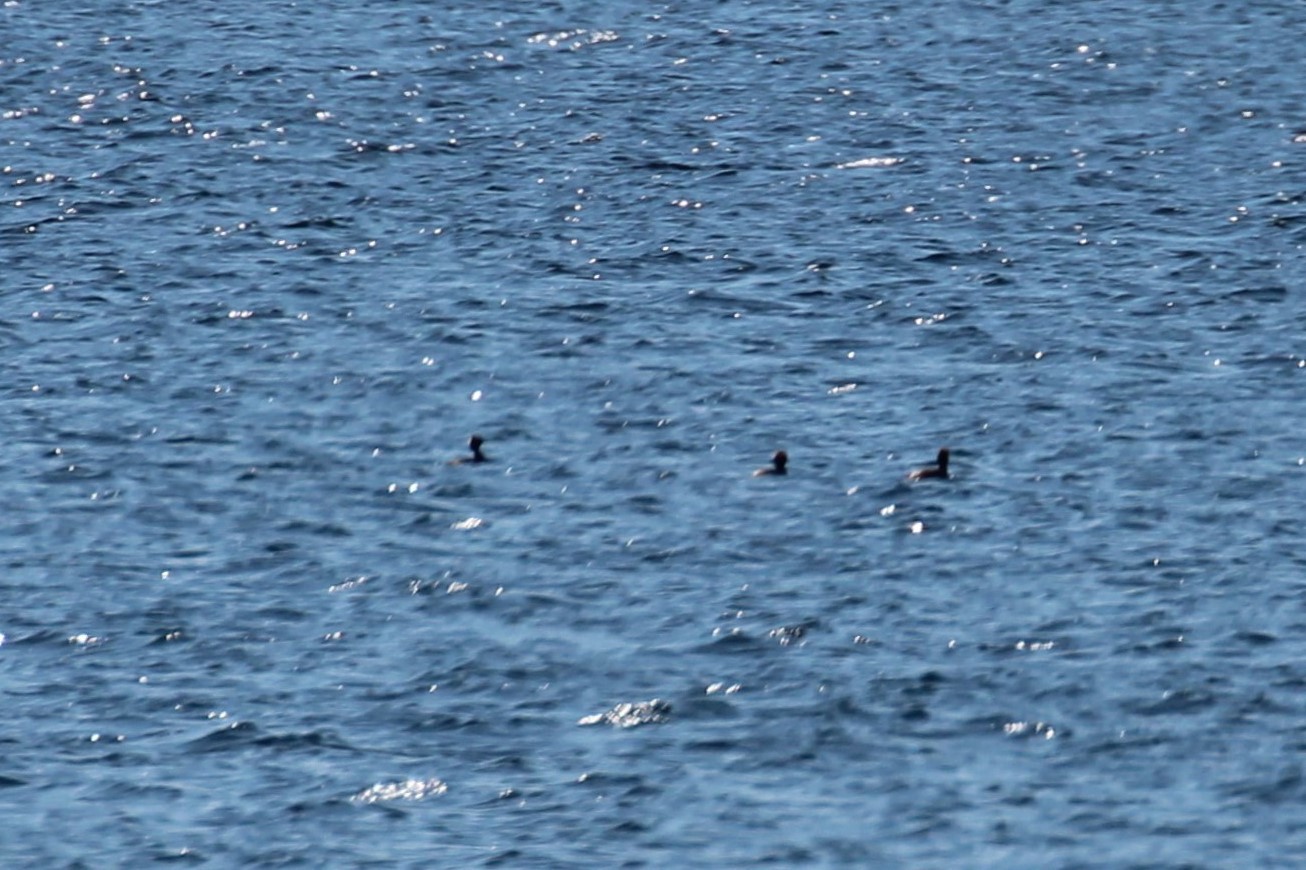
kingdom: Animalia
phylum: Chordata
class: Aves
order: Podicipediformes
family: Podicipedidae
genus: Podiceps
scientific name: Podiceps auritus
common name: Horned grebe
